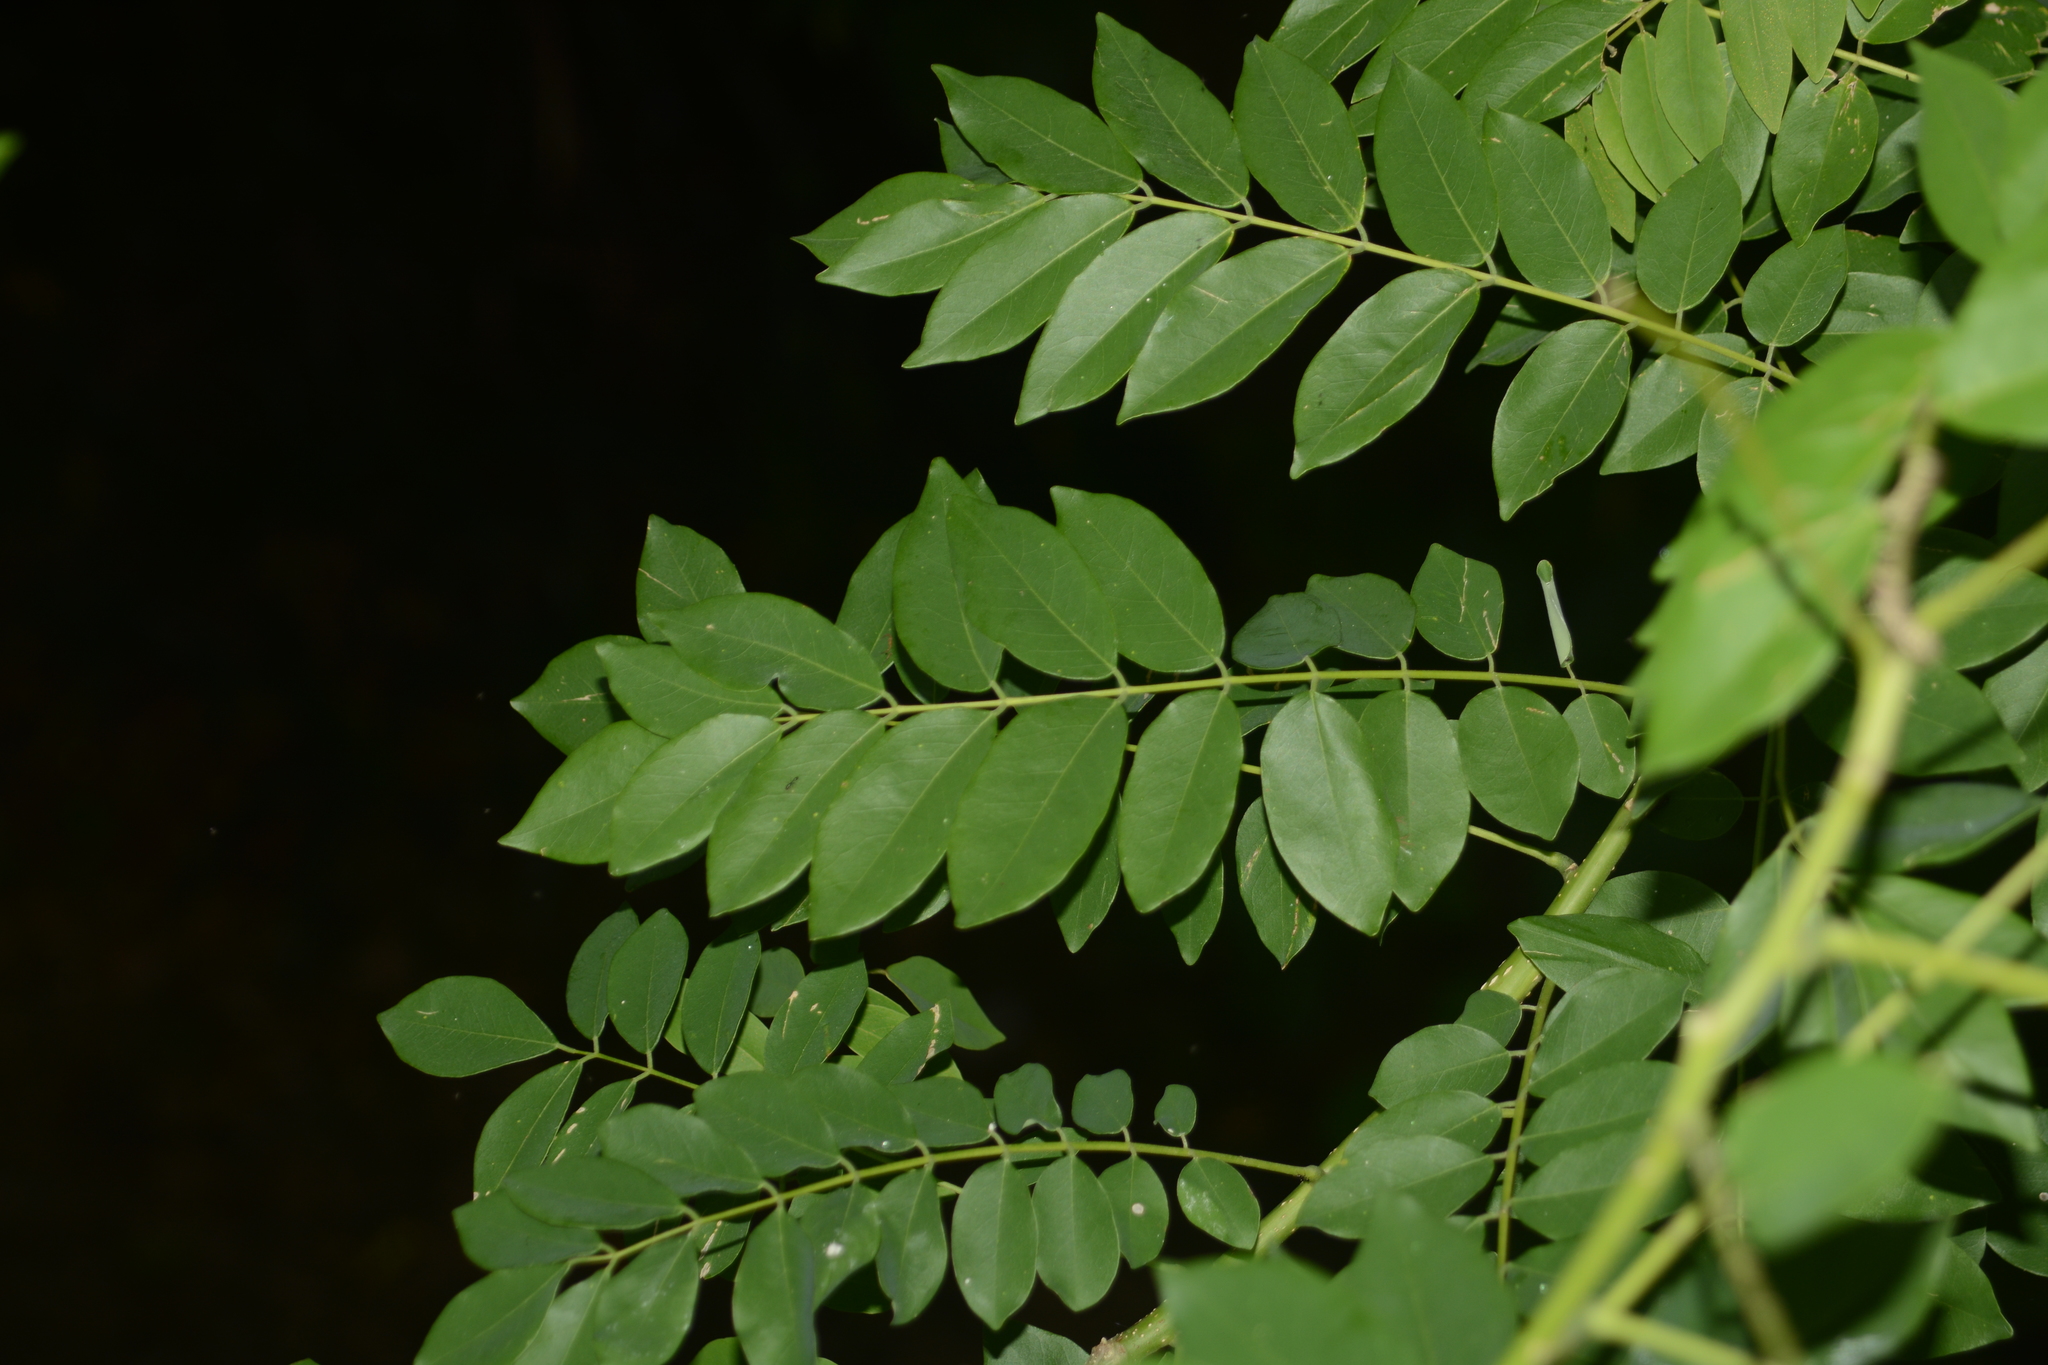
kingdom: Plantae
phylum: Tracheophyta
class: Magnoliopsida
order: Fabales
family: Fabaceae
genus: Gliricidia
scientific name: Gliricidia sepium
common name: Quickstick
